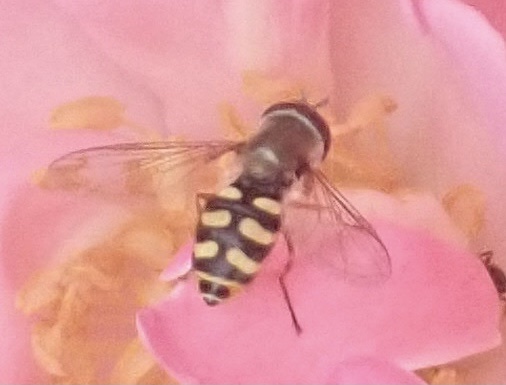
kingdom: Animalia
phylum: Arthropoda
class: Insecta
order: Diptera
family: Syrphidae
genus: Eupeodes
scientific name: Eupeodes corollae
